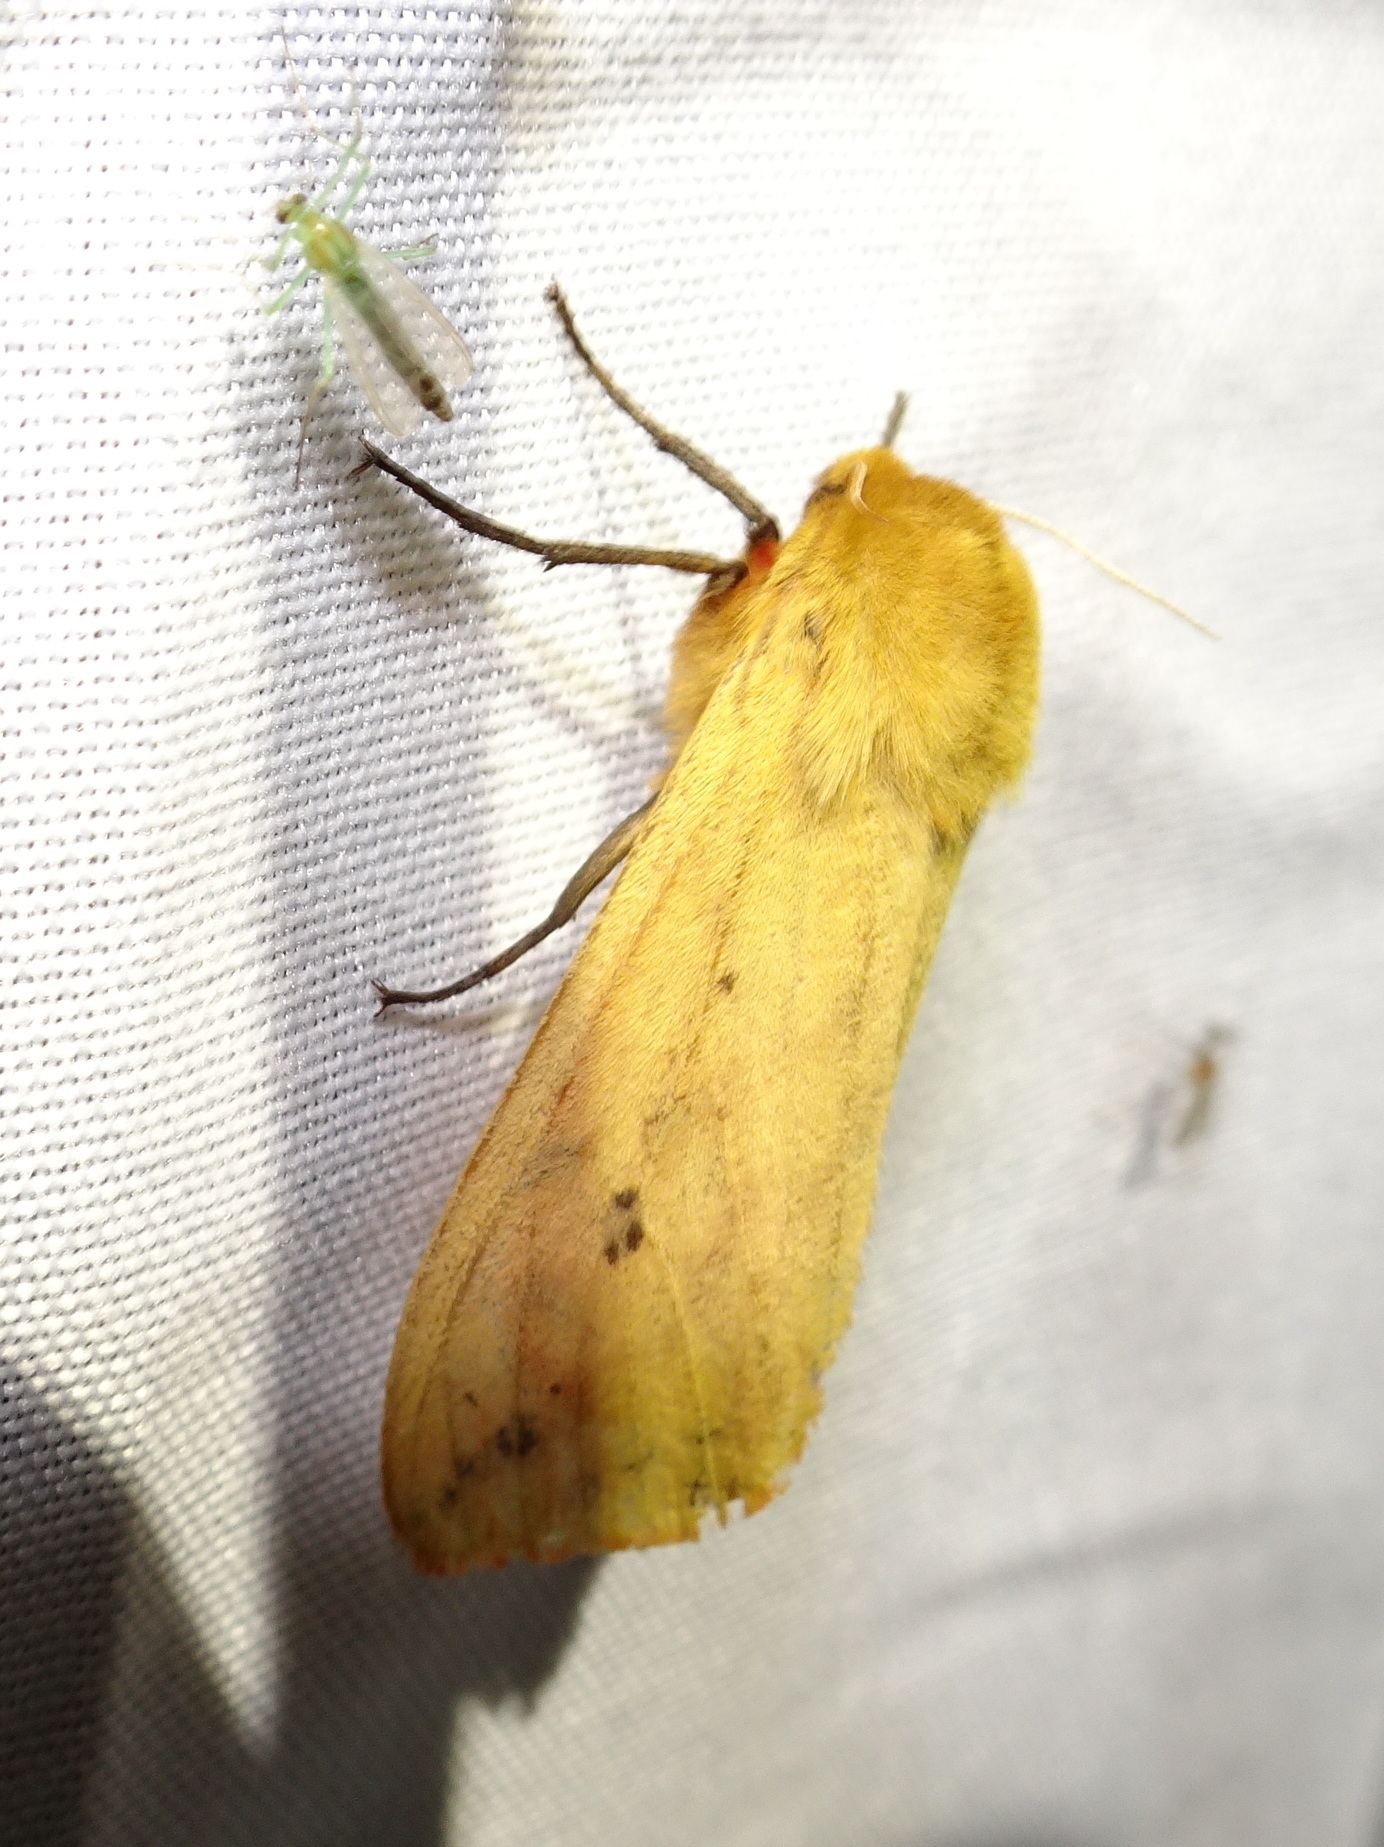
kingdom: Animalia
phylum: Arthropoda
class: Insecta
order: Lepidoptera
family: Erebidae
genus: Pyrrharctia
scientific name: Pyrrharctia isabella
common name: Isabella tiger moth
